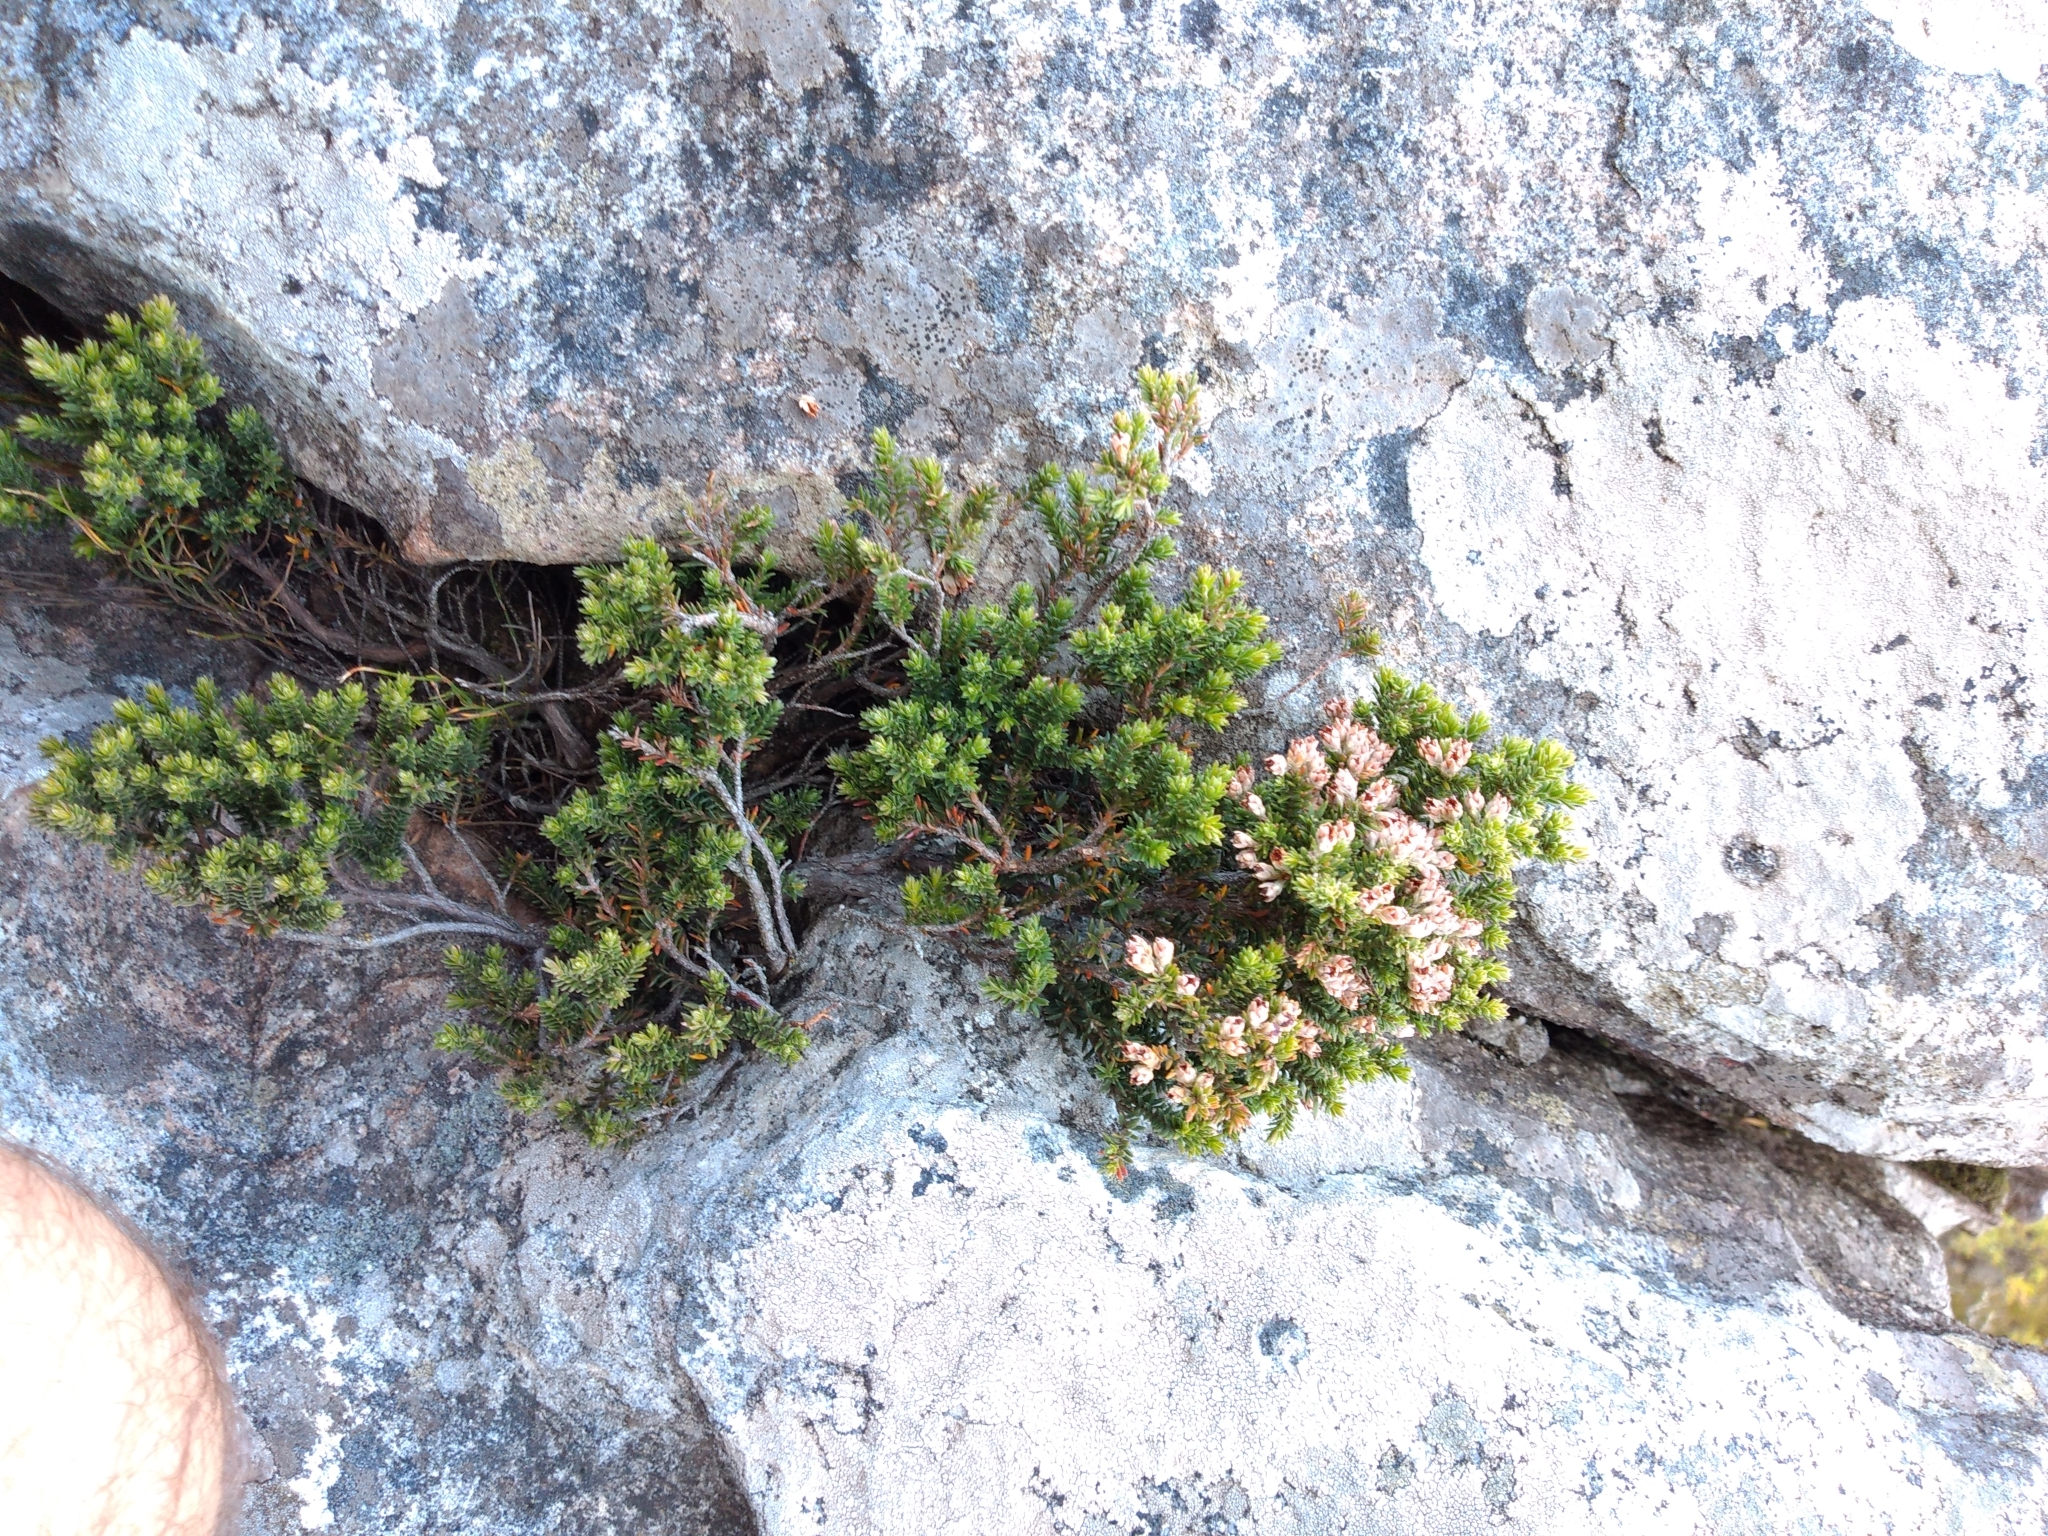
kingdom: Plantae
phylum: Tracheophyta
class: Magnoliopsida
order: Ericales
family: Ericaceae
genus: Erica
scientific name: Erica diosmifolia
